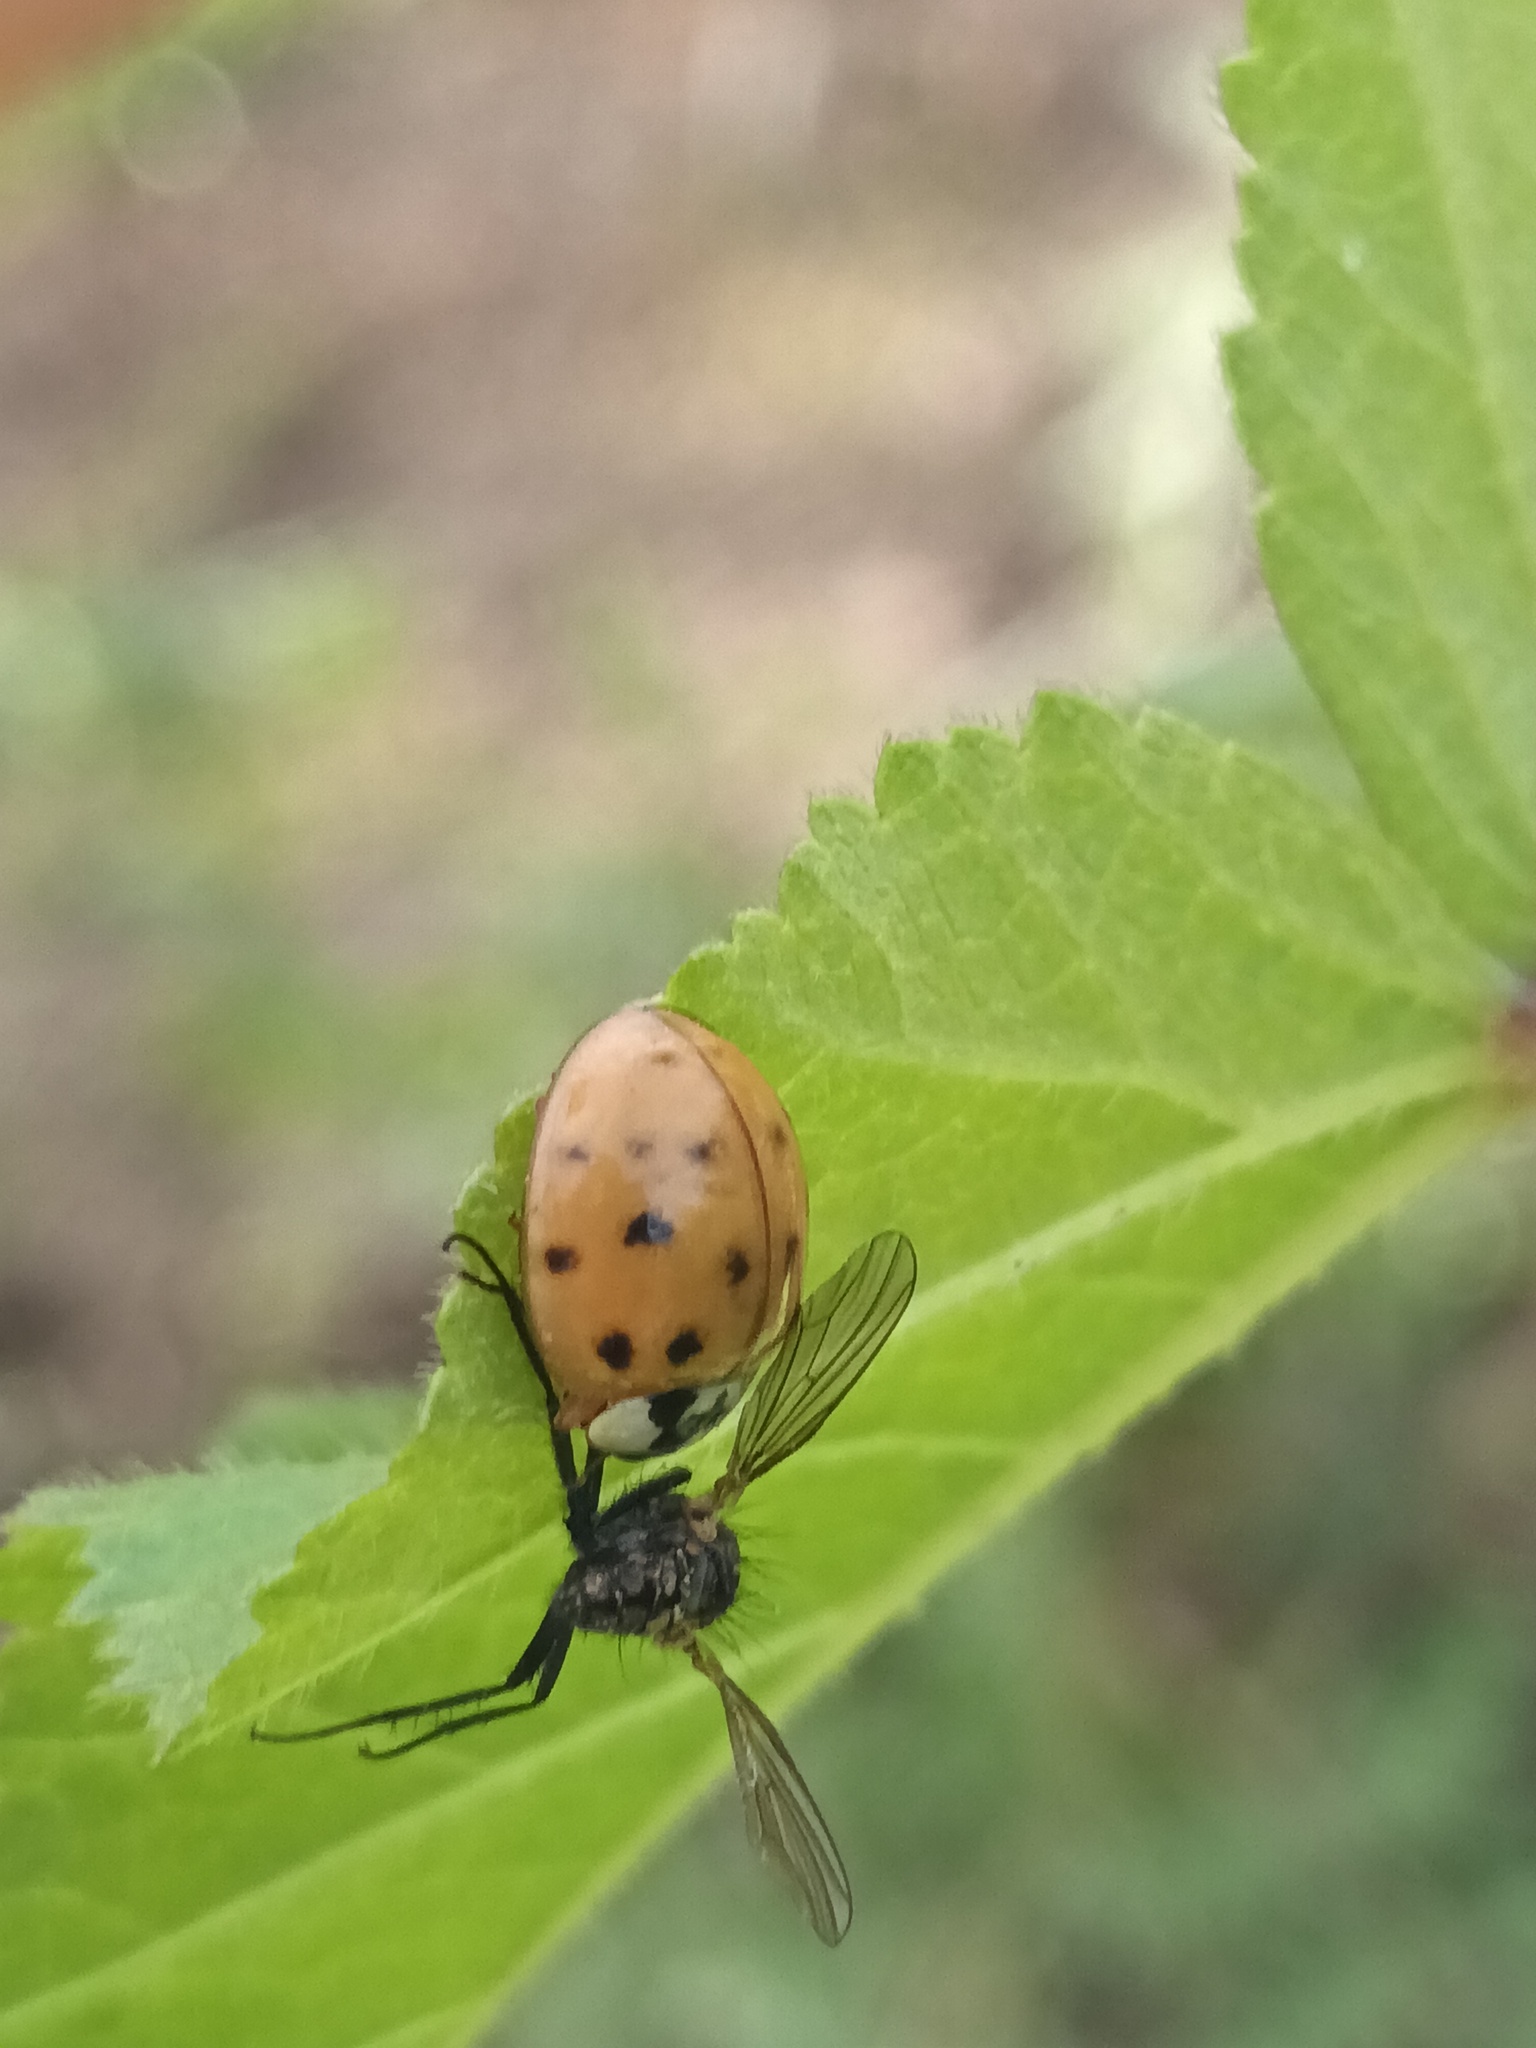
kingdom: Animalia
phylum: Arthropoda
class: Insecta
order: Coleoptera
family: Coccinellidae
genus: Harmonia
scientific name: Harmonia axyridis
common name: Harlequin ladybird
